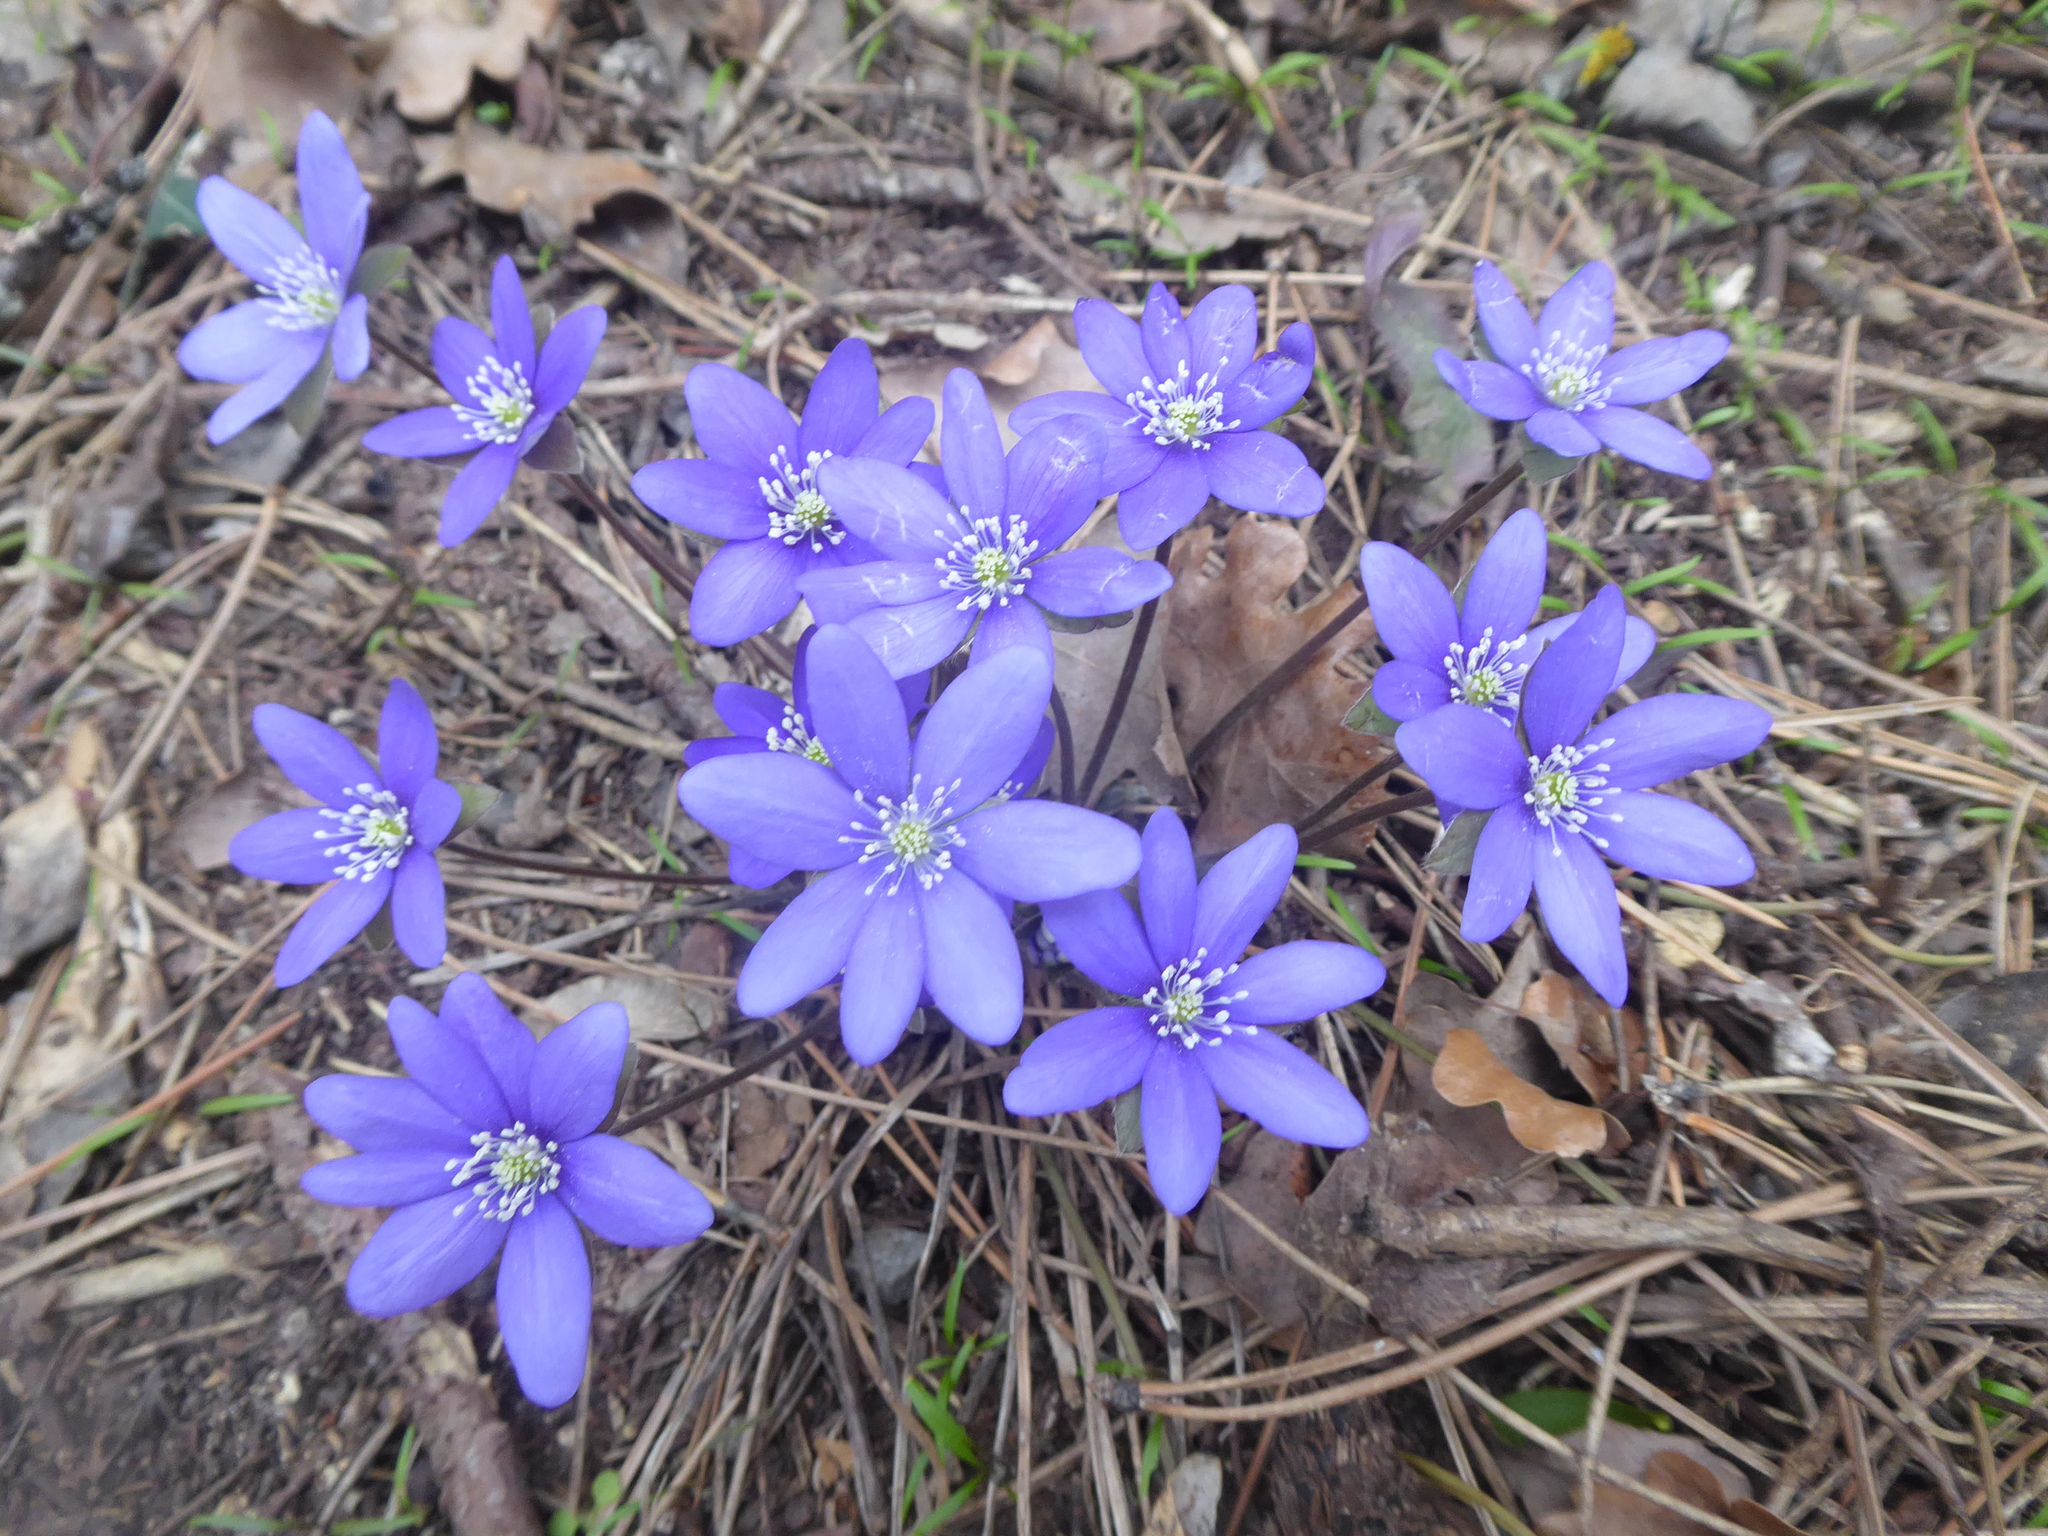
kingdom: Plantae
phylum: Tracheophyta
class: Magnoliopsida
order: Ranunculales
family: Ranunculaceae
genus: Hepatica
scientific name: Hepatica nobilis
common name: Liverleaf
